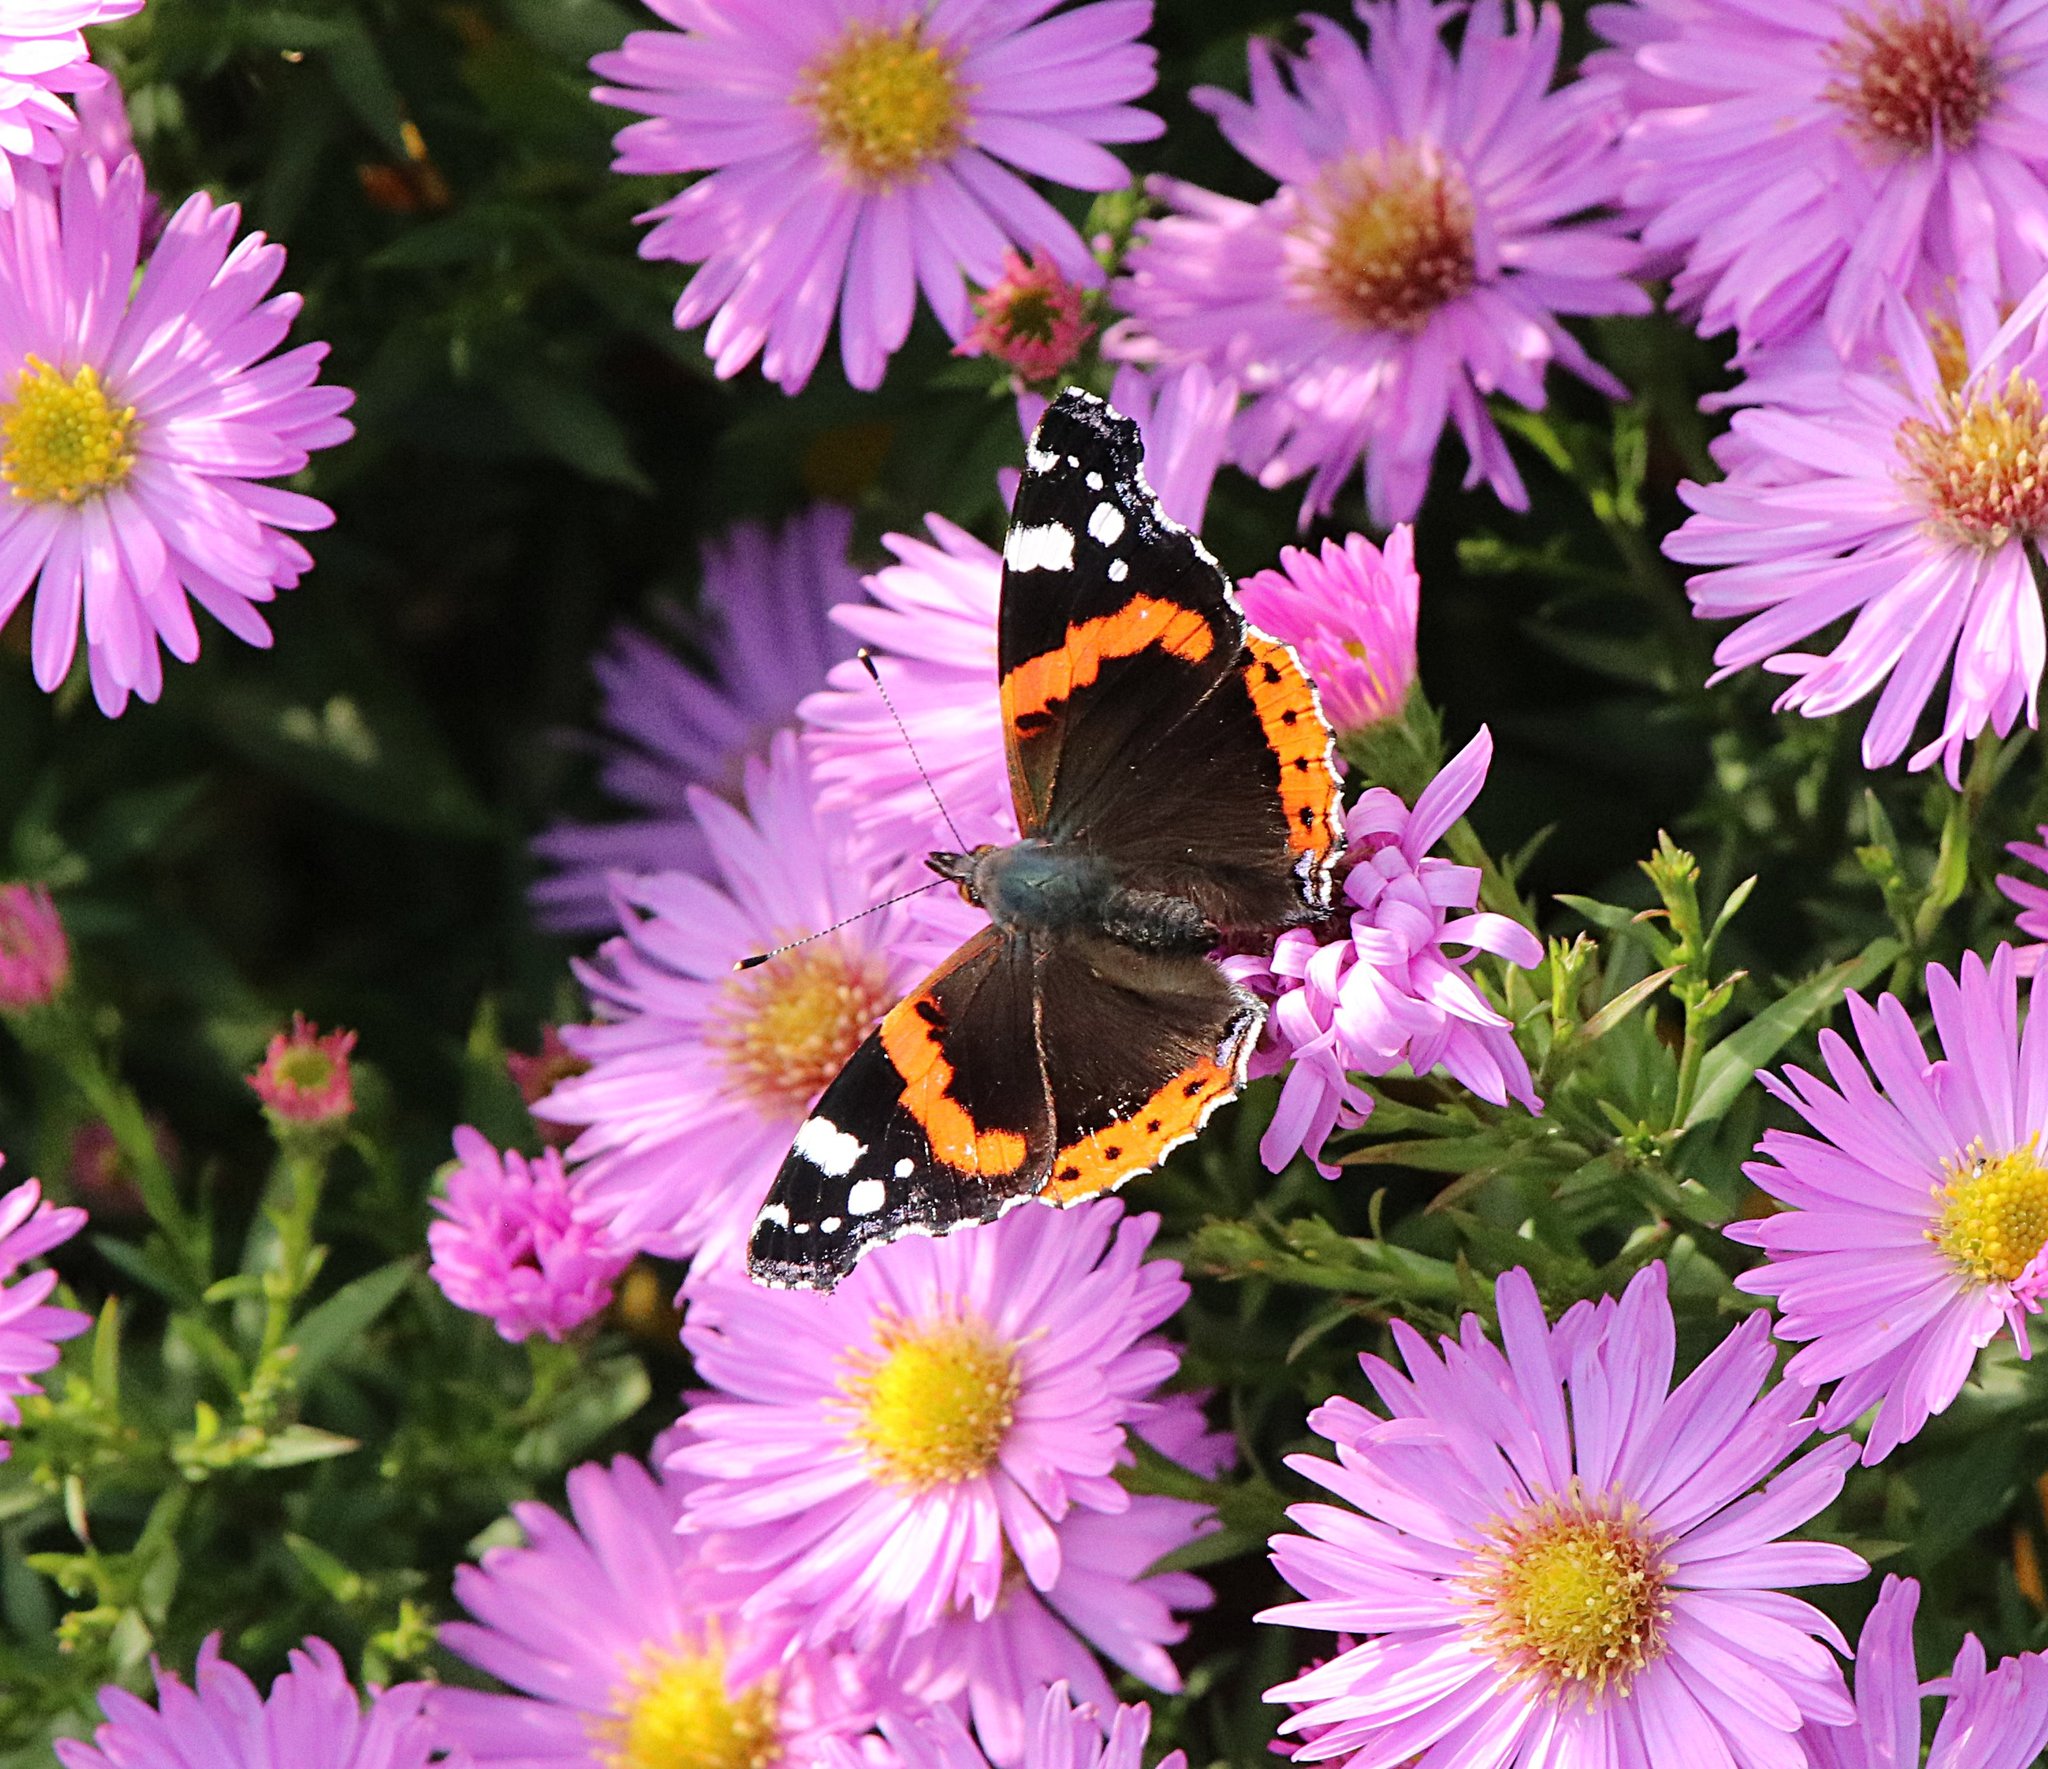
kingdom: Animalia
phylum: Arthropoda
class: Insecta
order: Lepidoptera
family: Nymphalidae
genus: Vanessa
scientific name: Vanessa atalanta
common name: Red admiral
